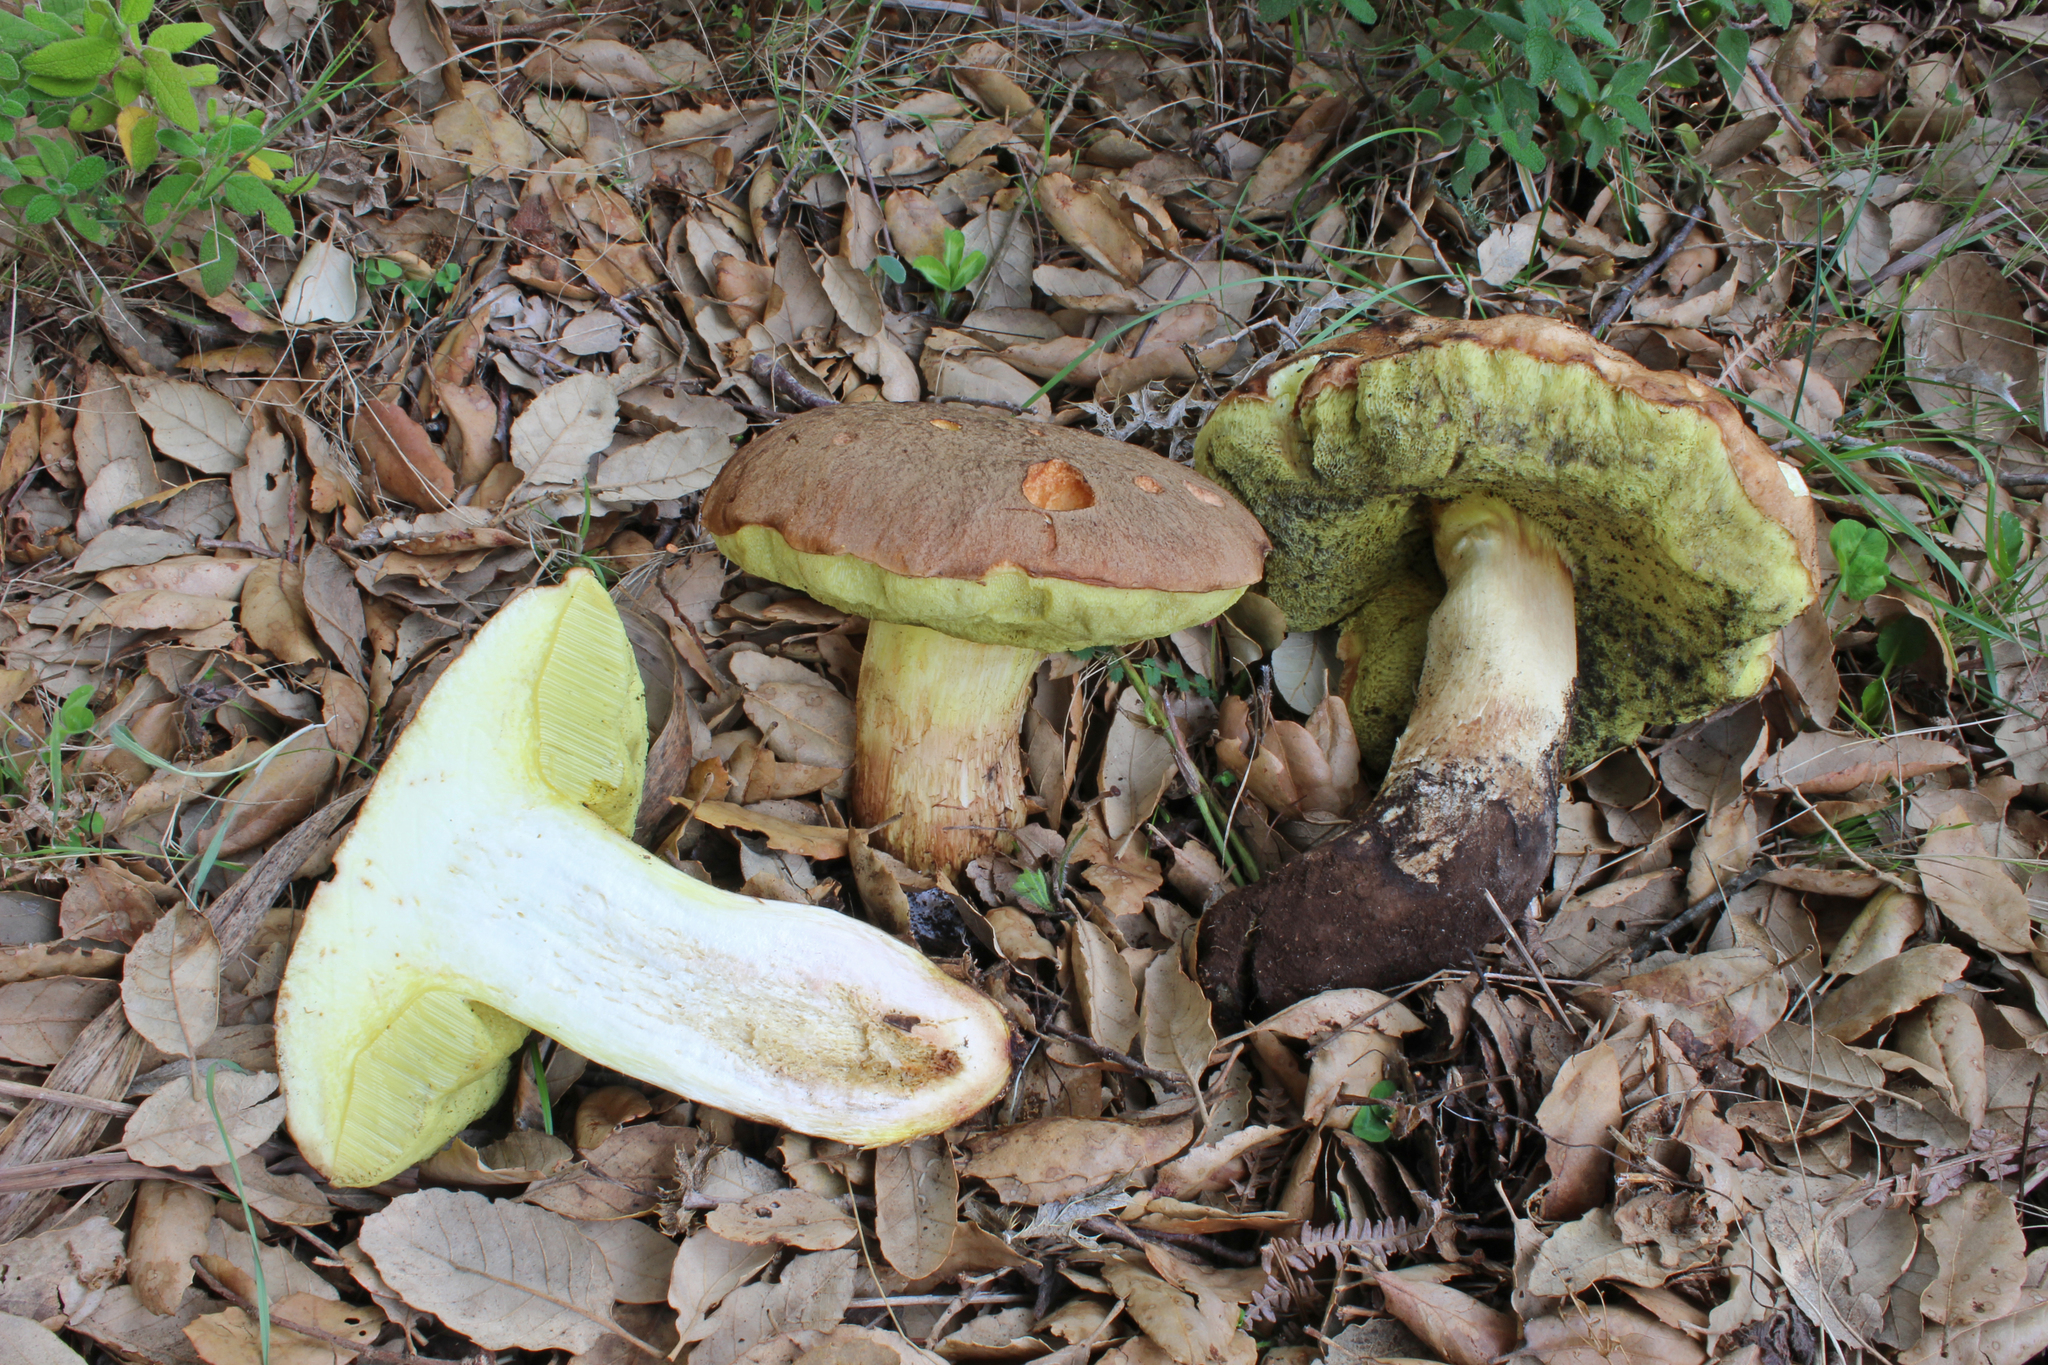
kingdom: Fungi
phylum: Basidiomycota
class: Agaricomycetes
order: Boletales
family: Boletaceae
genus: Hemileccinum
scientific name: Hemileccinum impolitum
